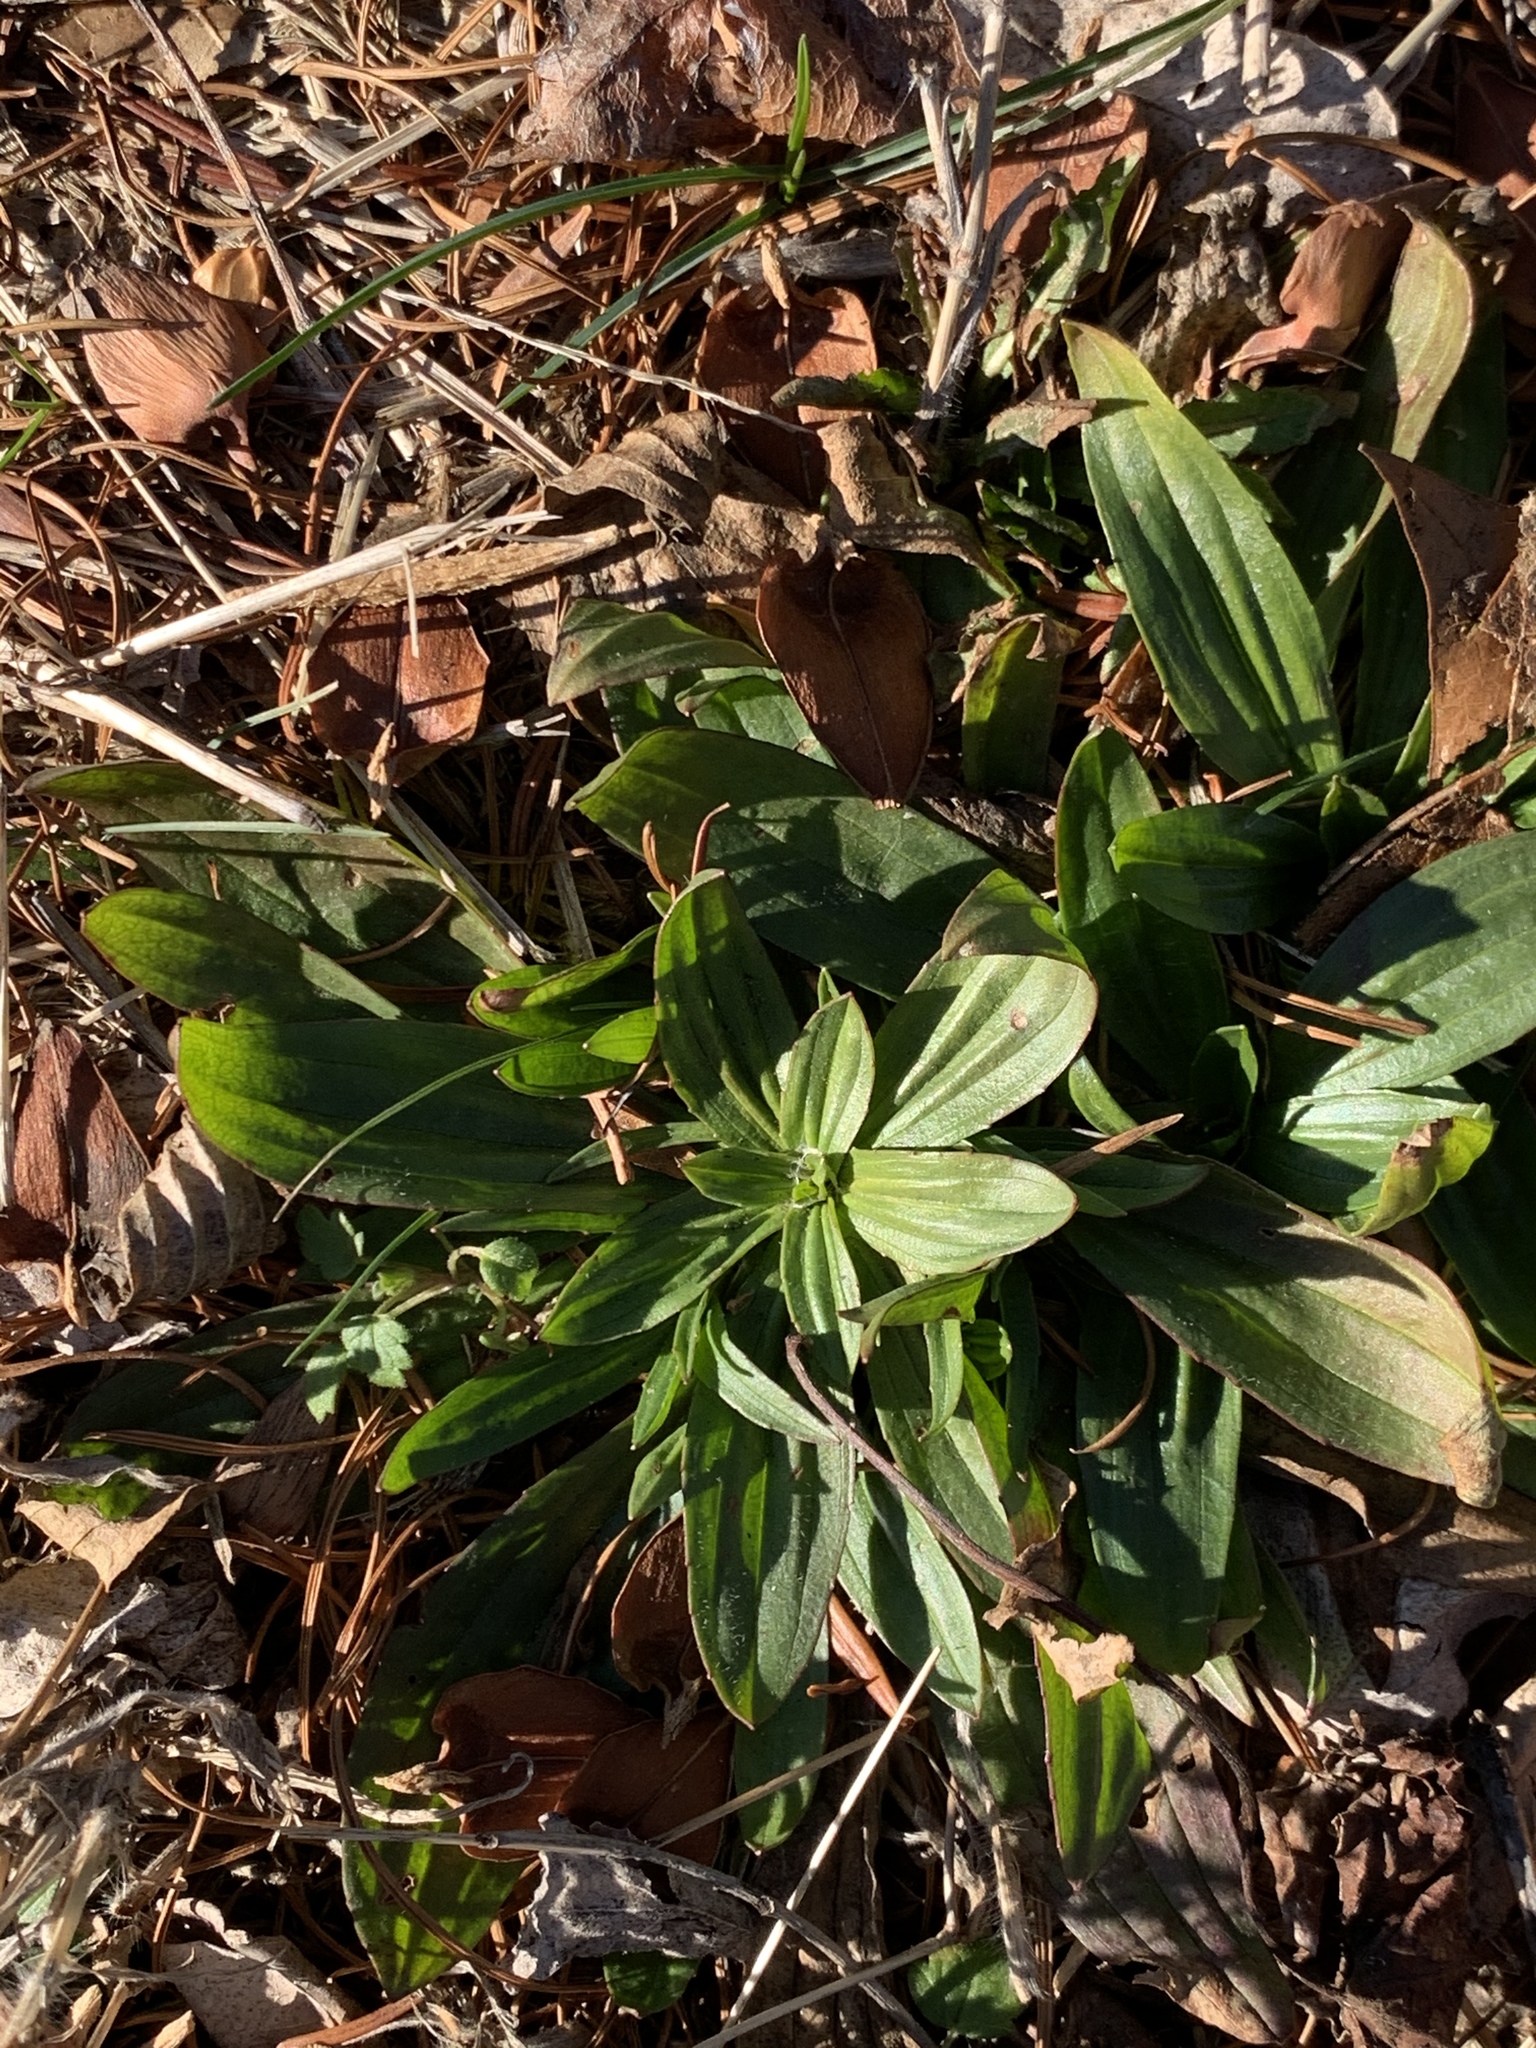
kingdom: Plantae
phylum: Tracheophyta
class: Magnoliopsida
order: Lamiales
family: Plantaginaceae
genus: Plantago
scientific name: Plantago lanceolata
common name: Ribwort plantain
